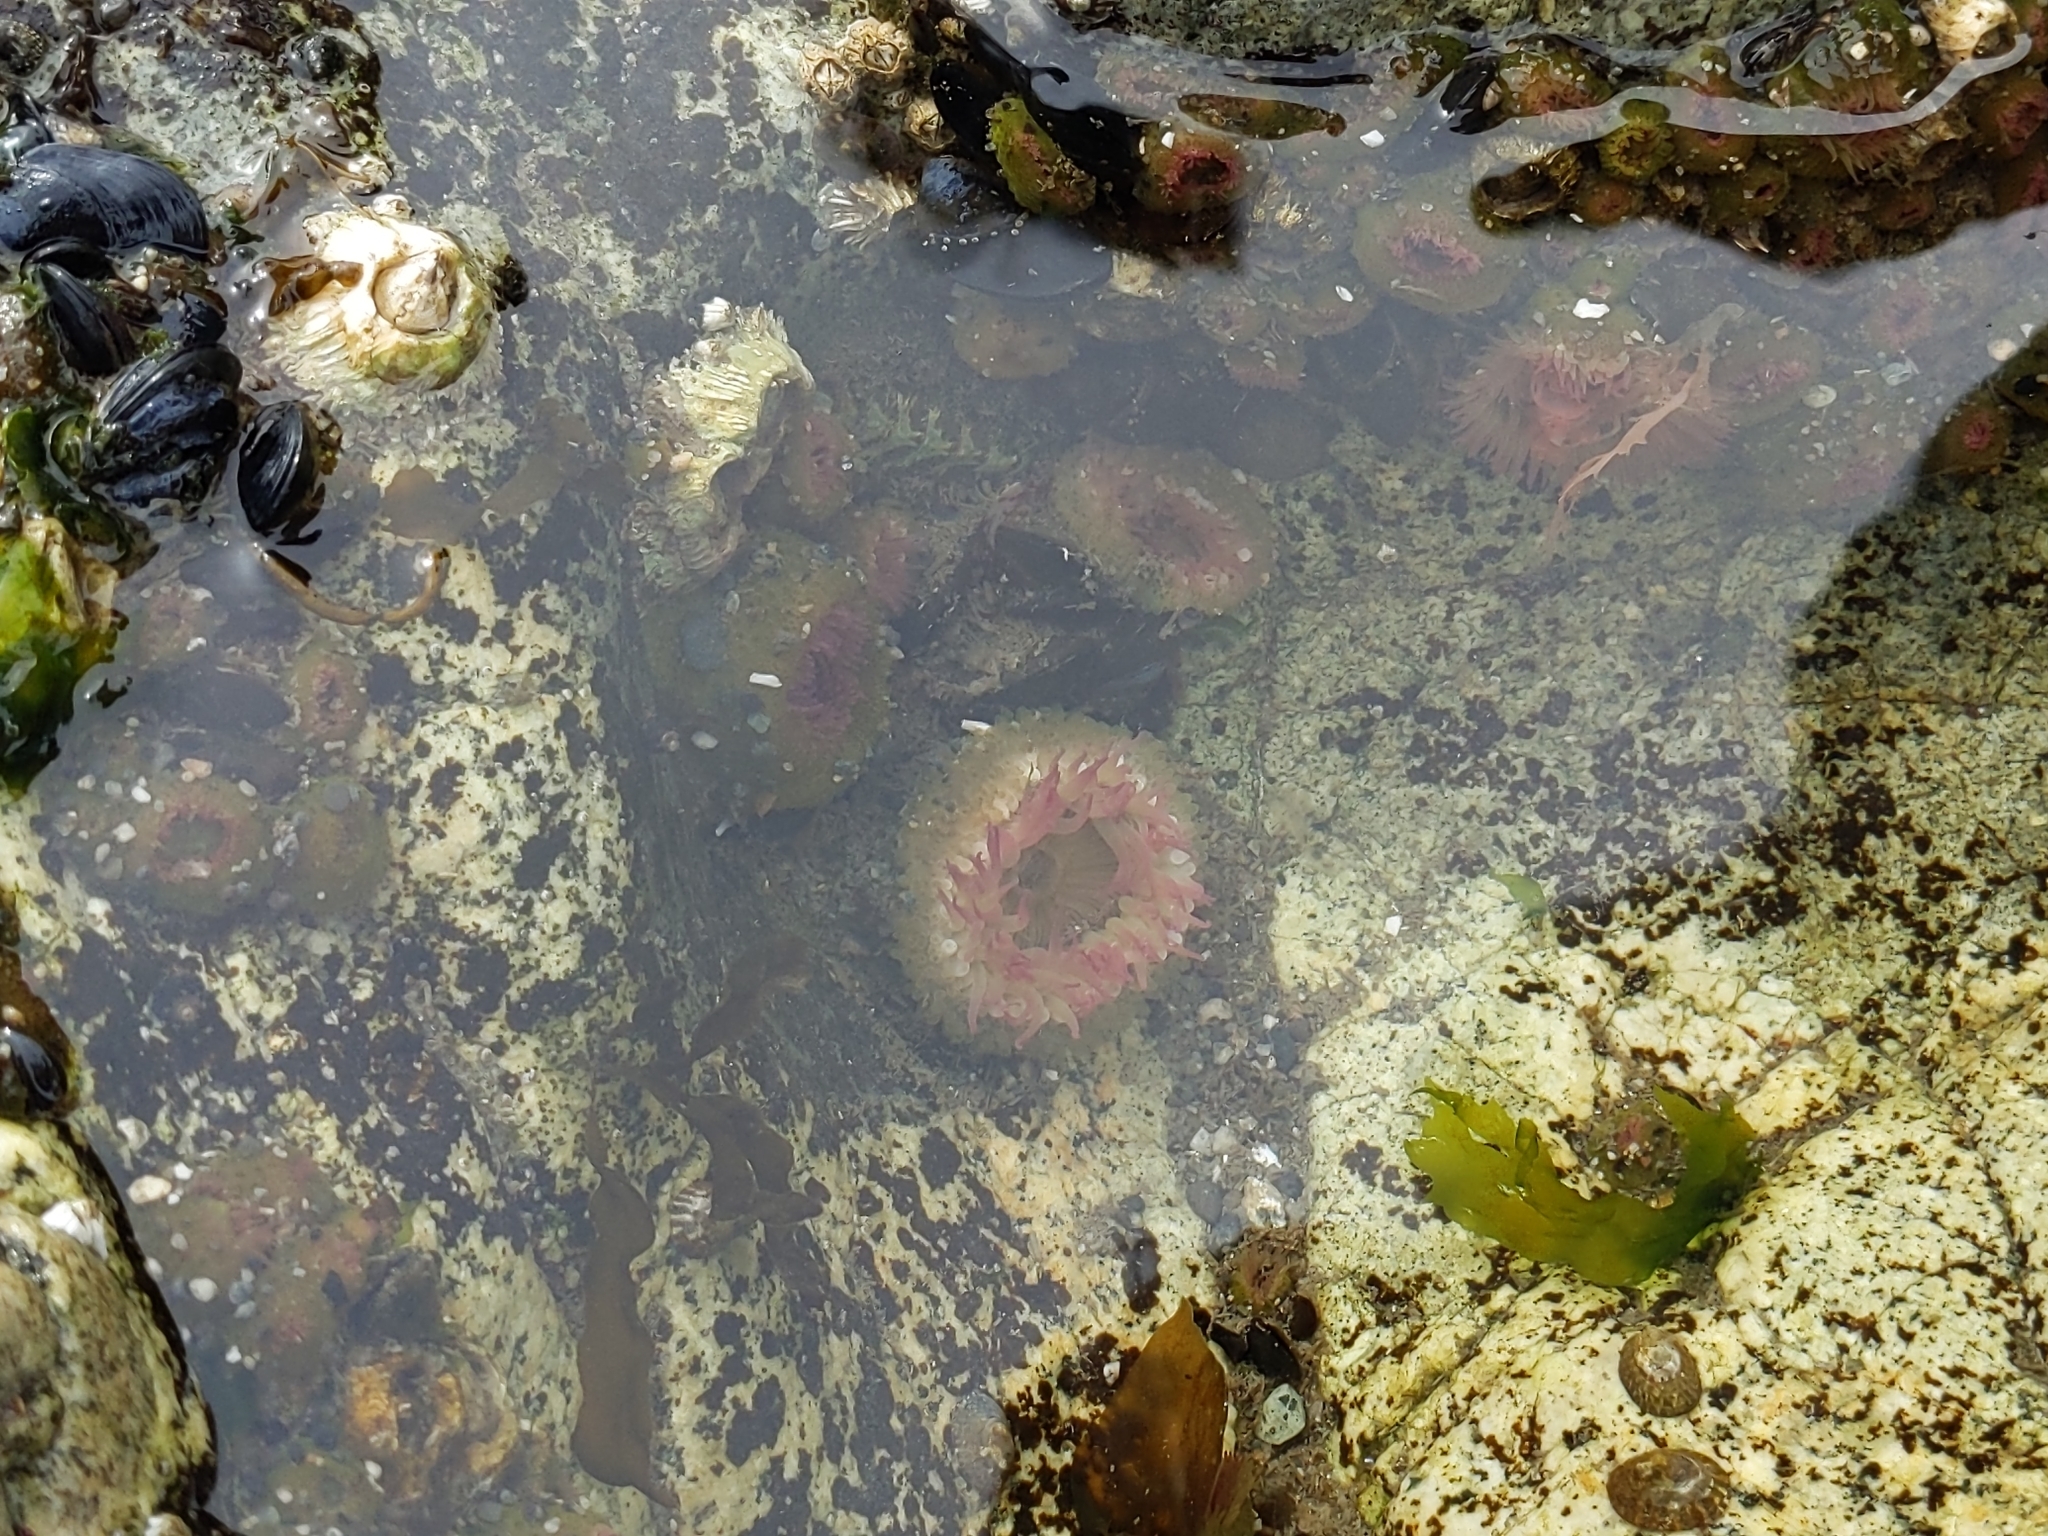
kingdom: Animalia
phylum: Cnidaria
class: Anthozoa
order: Actiniaria
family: Actiniidae
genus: Anthopleura
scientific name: Anthopleura elegantissima
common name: Clonal anemone
